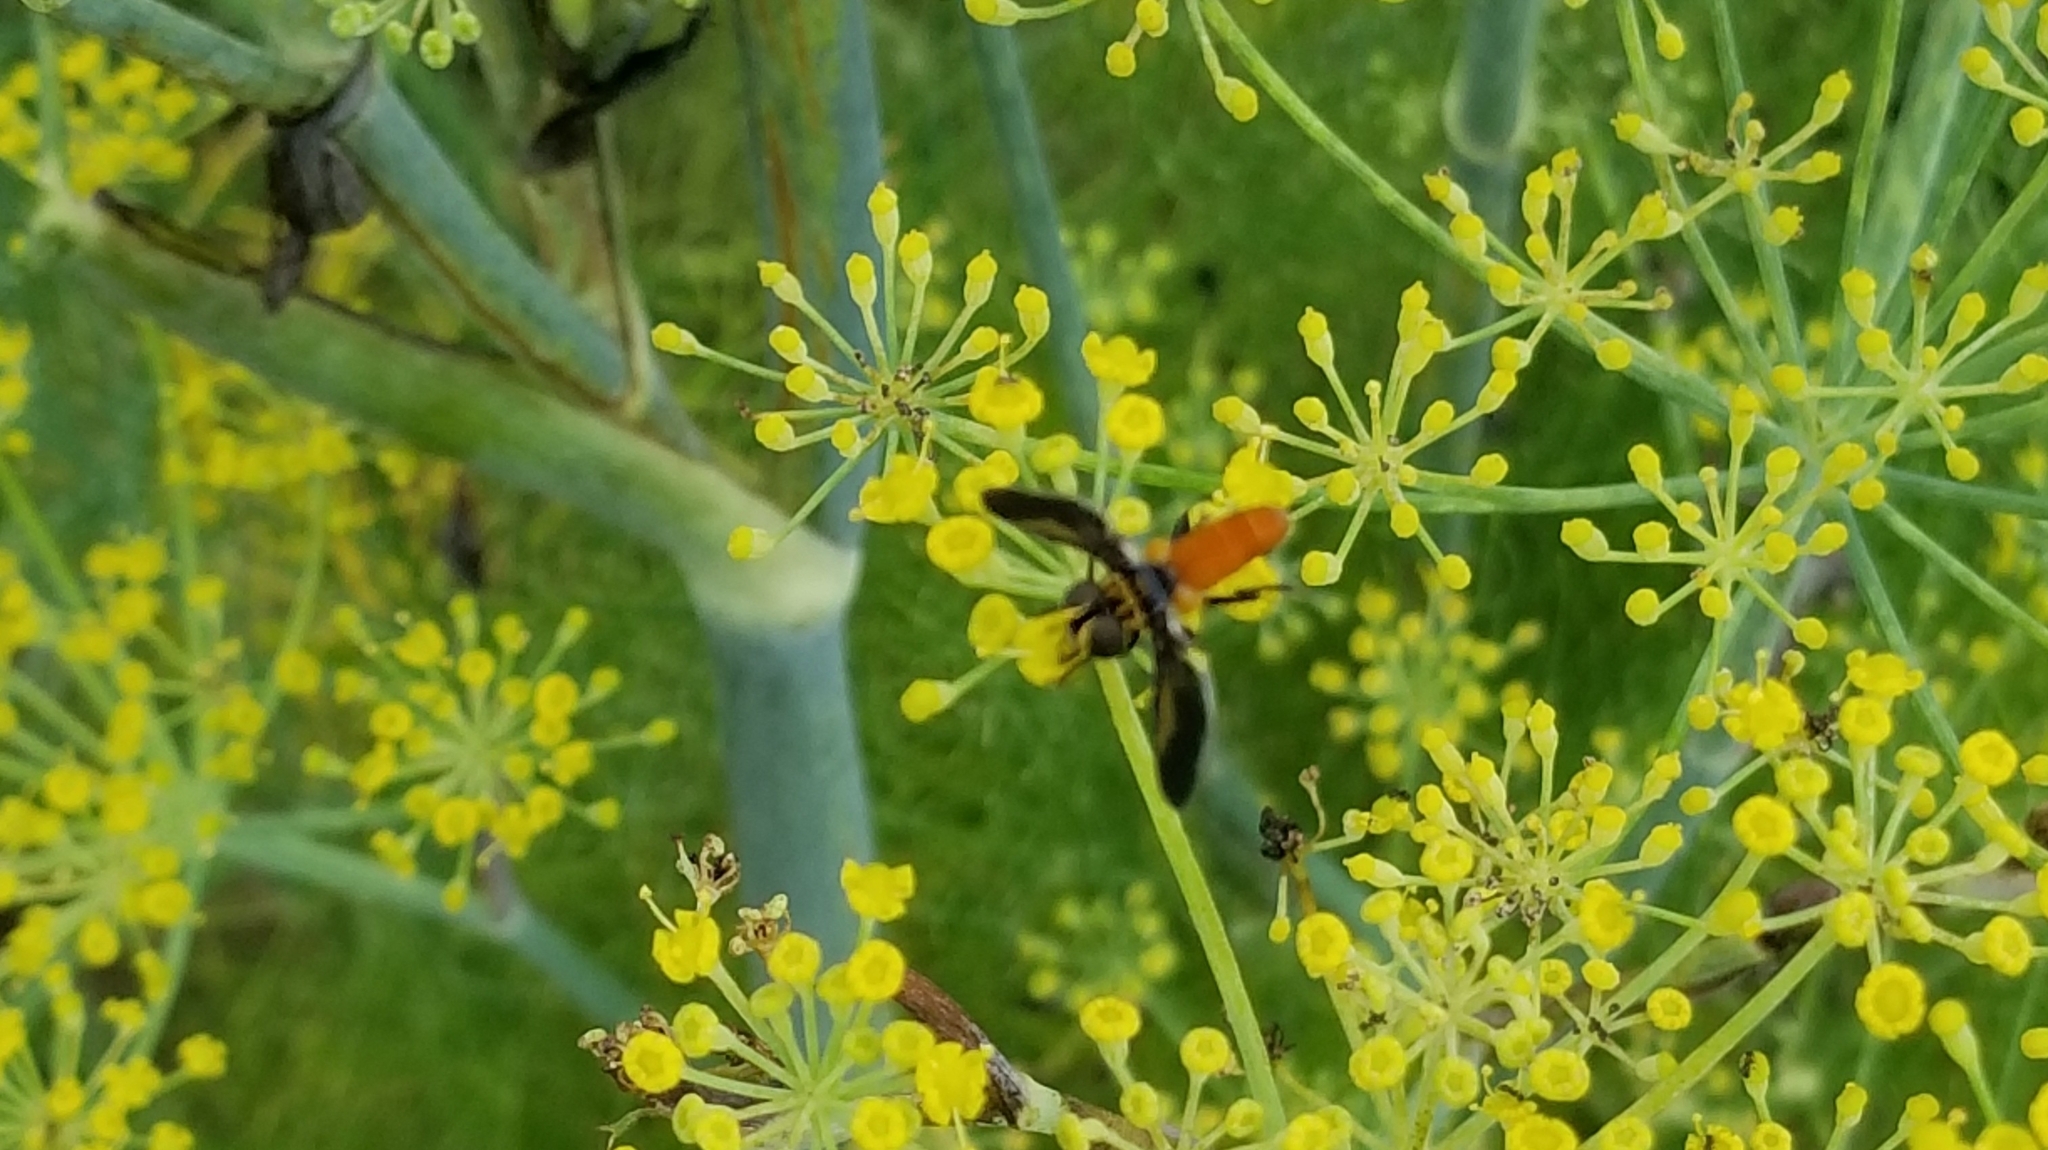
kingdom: Animalia
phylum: Arthropoda
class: Insecta
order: Diptera
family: Tachinidae
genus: Trichopoda
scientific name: Trichopoda pennipes
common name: Tachinid fly
